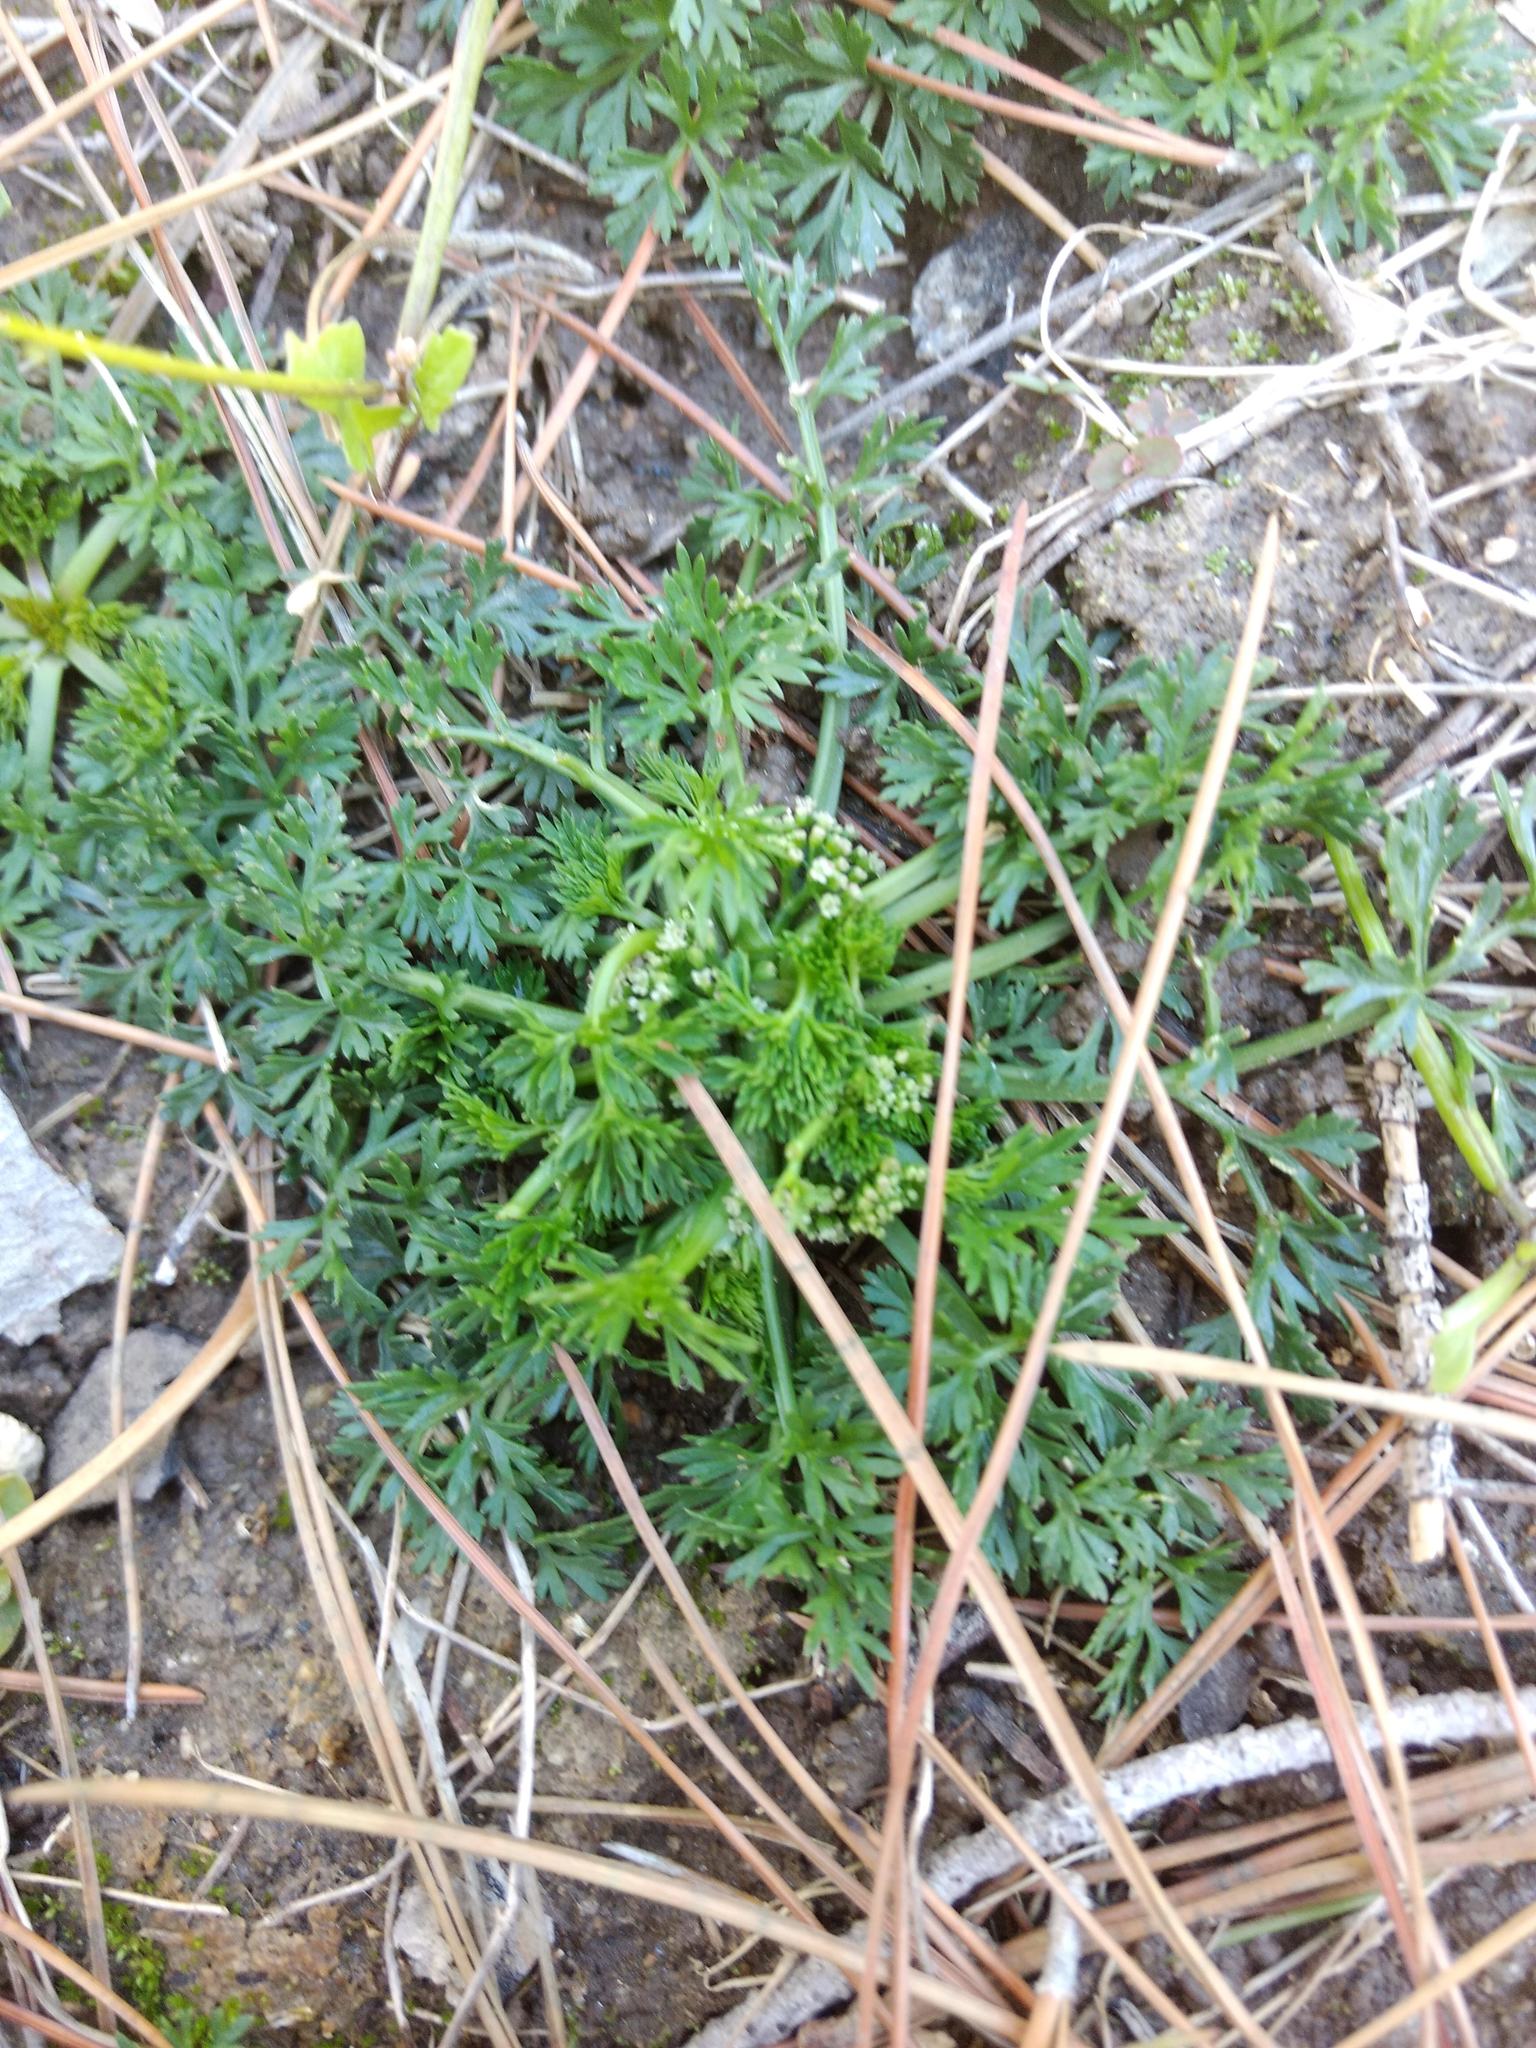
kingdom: Plantae
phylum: Tracheophyta
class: Magnoliopsida
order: Brassicales
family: Brassicaceae
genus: Lepidium
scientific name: Lepidium didymum
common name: Lesser swinecress
